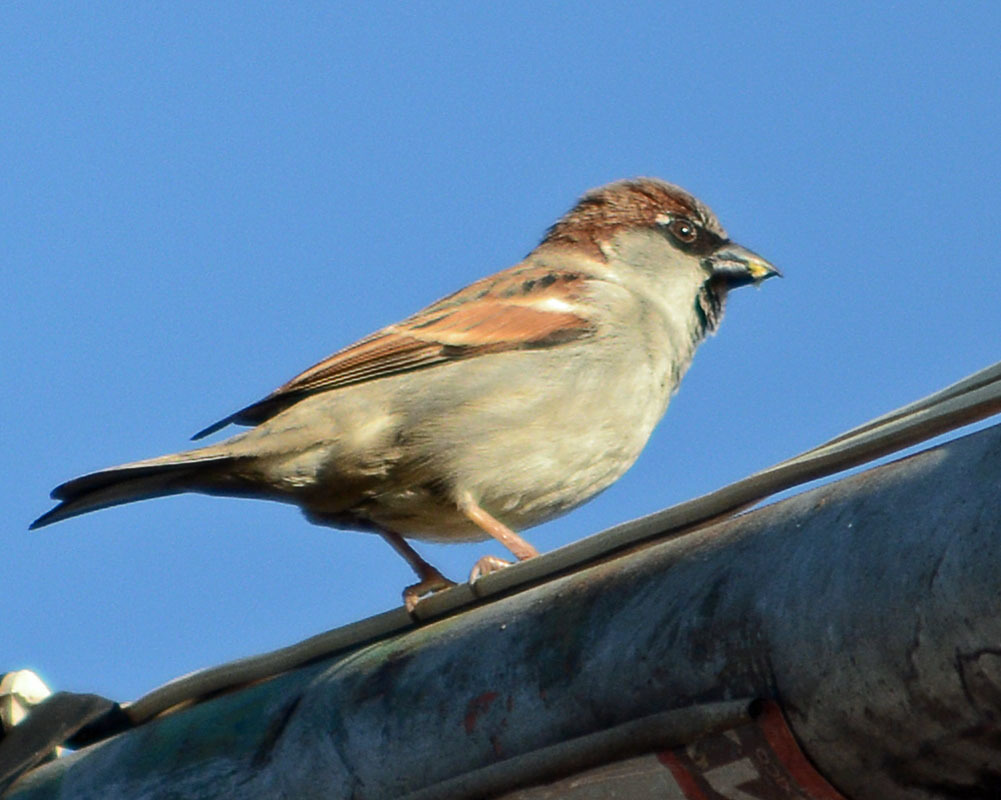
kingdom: Animalia
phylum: Chordata
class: Aves
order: Passeriformes
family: Passeridae
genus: Passer
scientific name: Passer domesticus
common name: House sparrow
